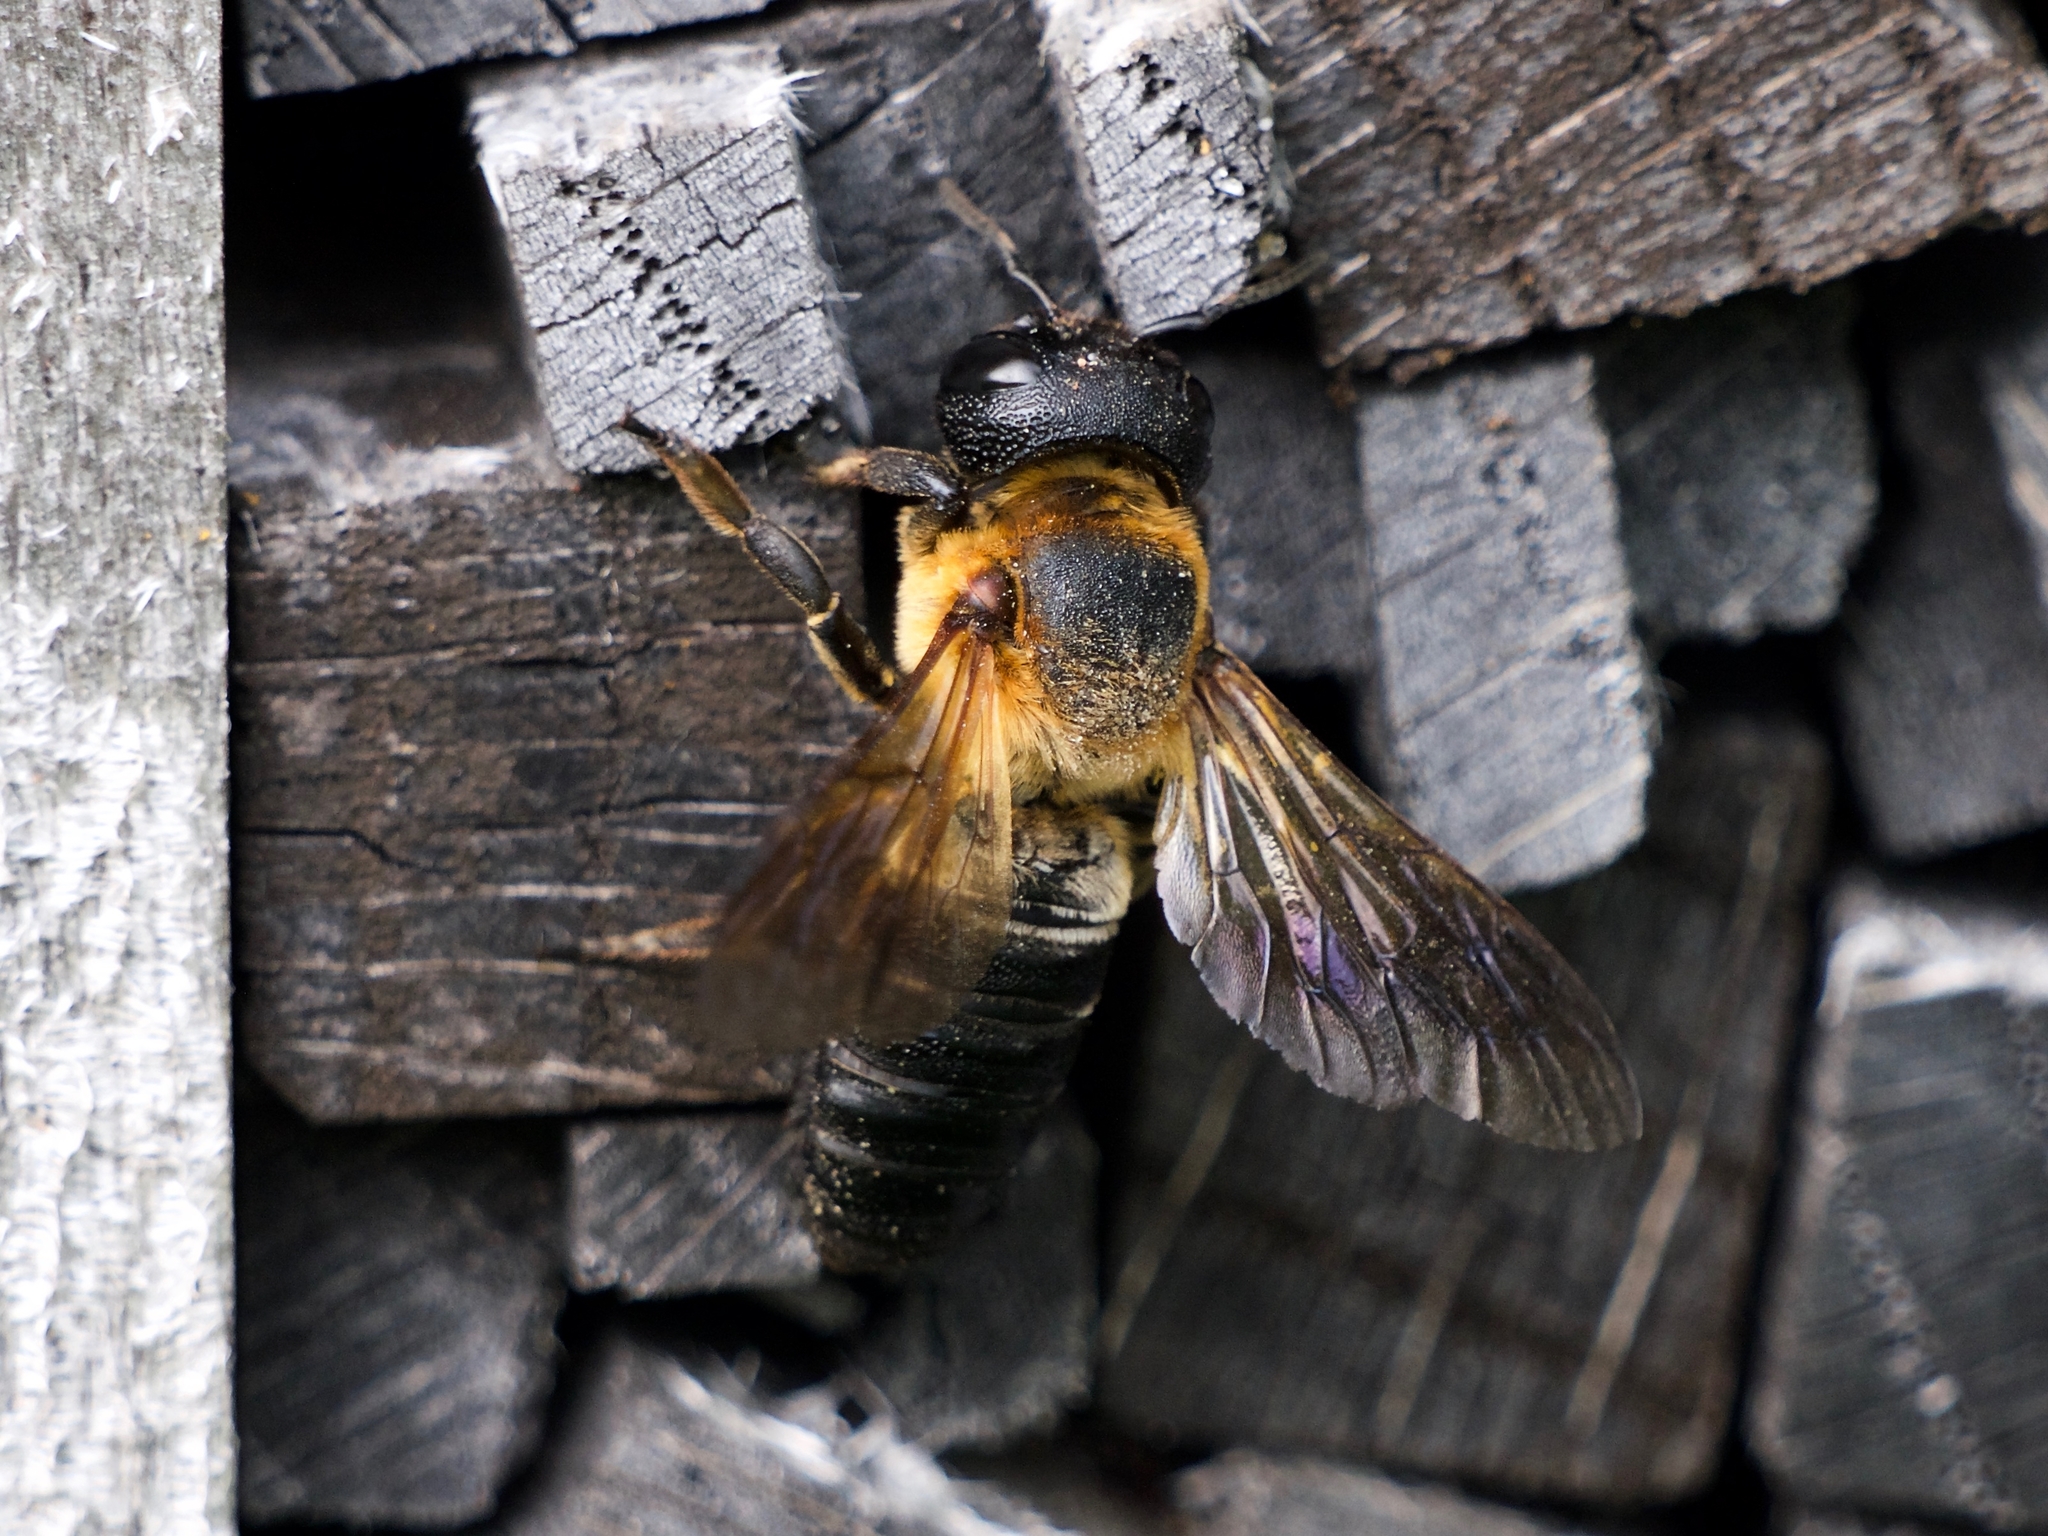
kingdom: Animalia
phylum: Arthropoda
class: Insecta
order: Hymenoptera
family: Megachilidae
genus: Megachile
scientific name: Megachile sculpturalis
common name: Sculptured resin bee
